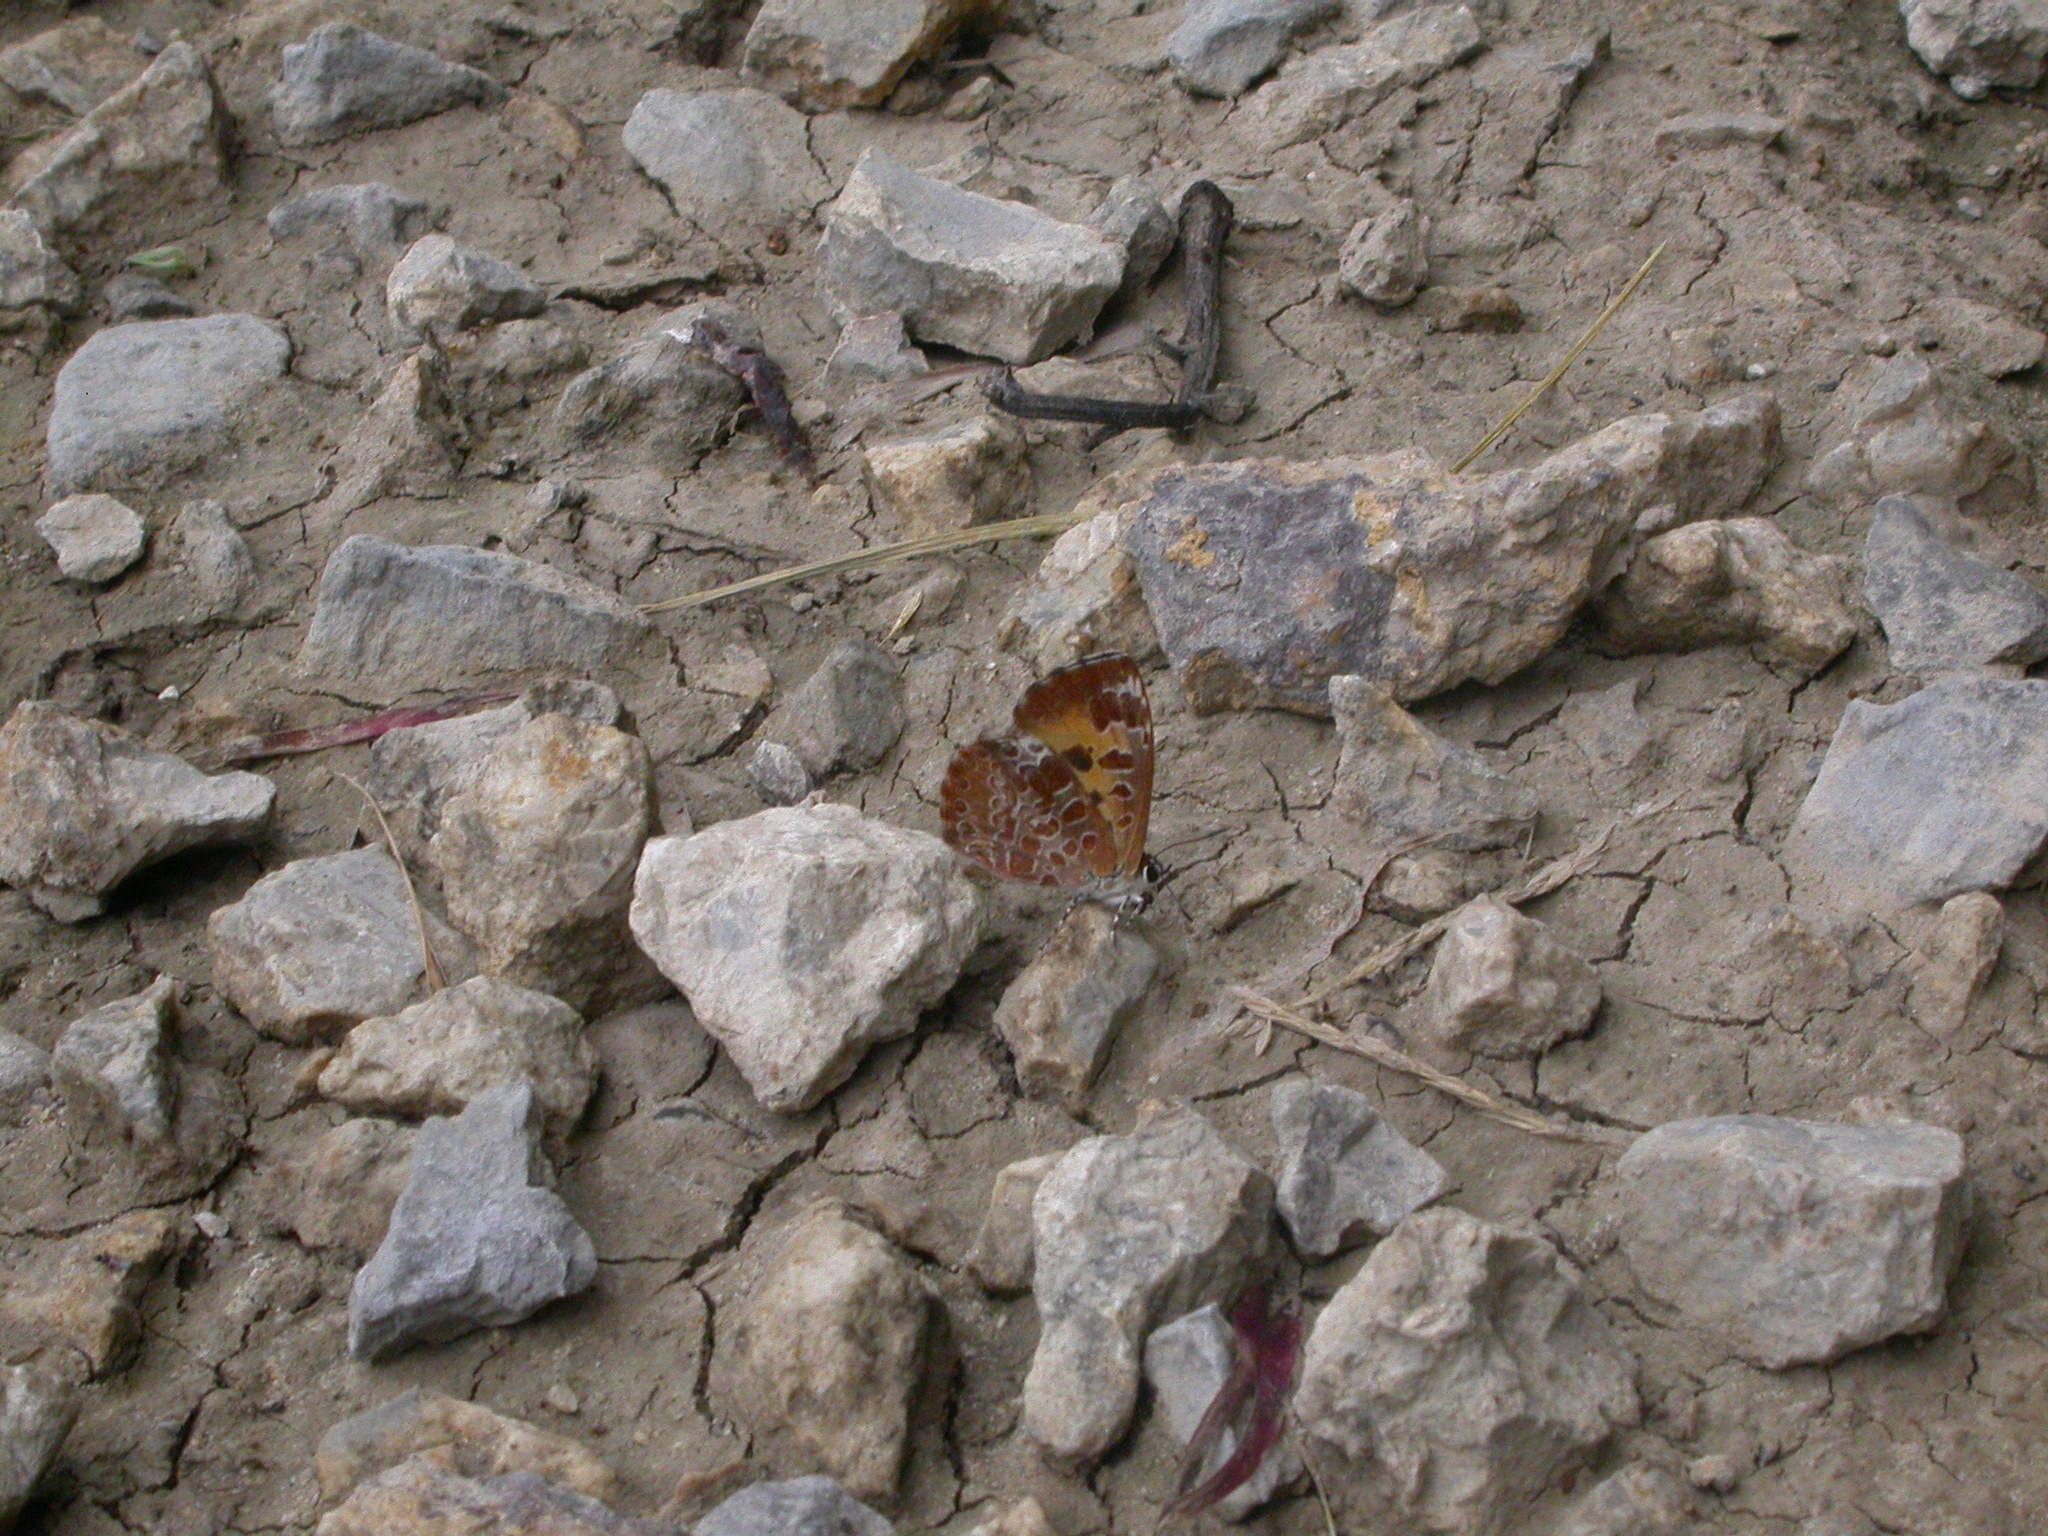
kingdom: Animalia
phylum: Arthropoda
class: Insecta
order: Lepidoptera
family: Lycaenidae
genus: Feniseca
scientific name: Feniseca tarquinius
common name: Harvester
